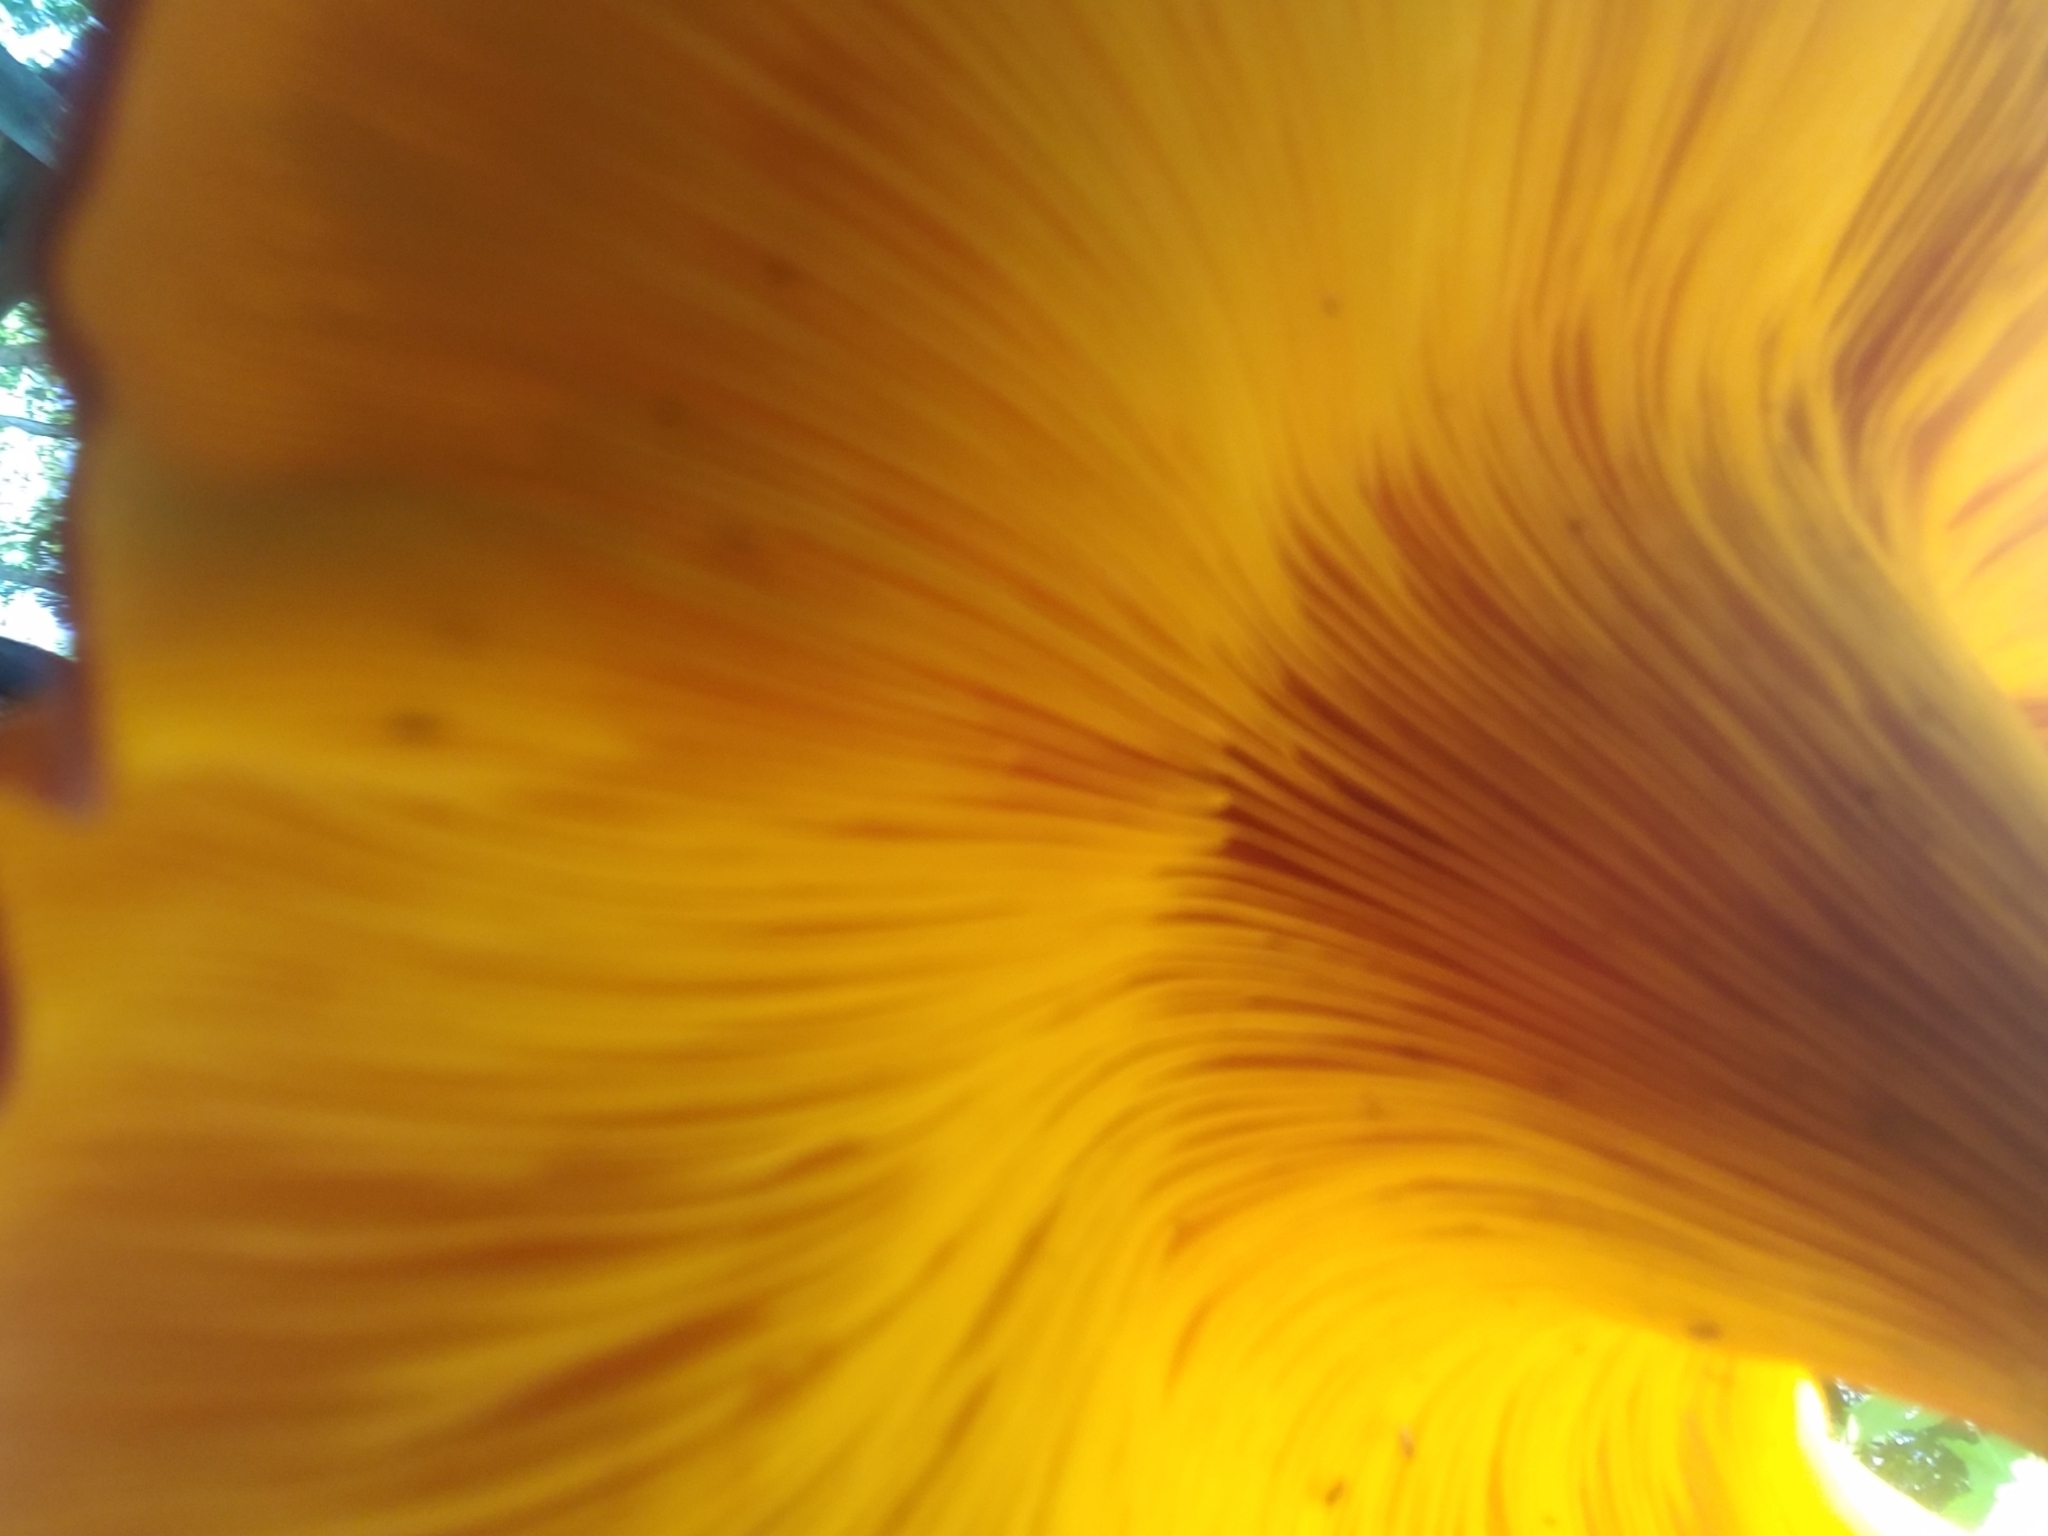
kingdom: Fungi
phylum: Basidiomycota
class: Agaricomycetes
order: Agaricales
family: Omphalotaceae
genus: Omphalotus
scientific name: Omphalotus illudens
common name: Jack o lantern
